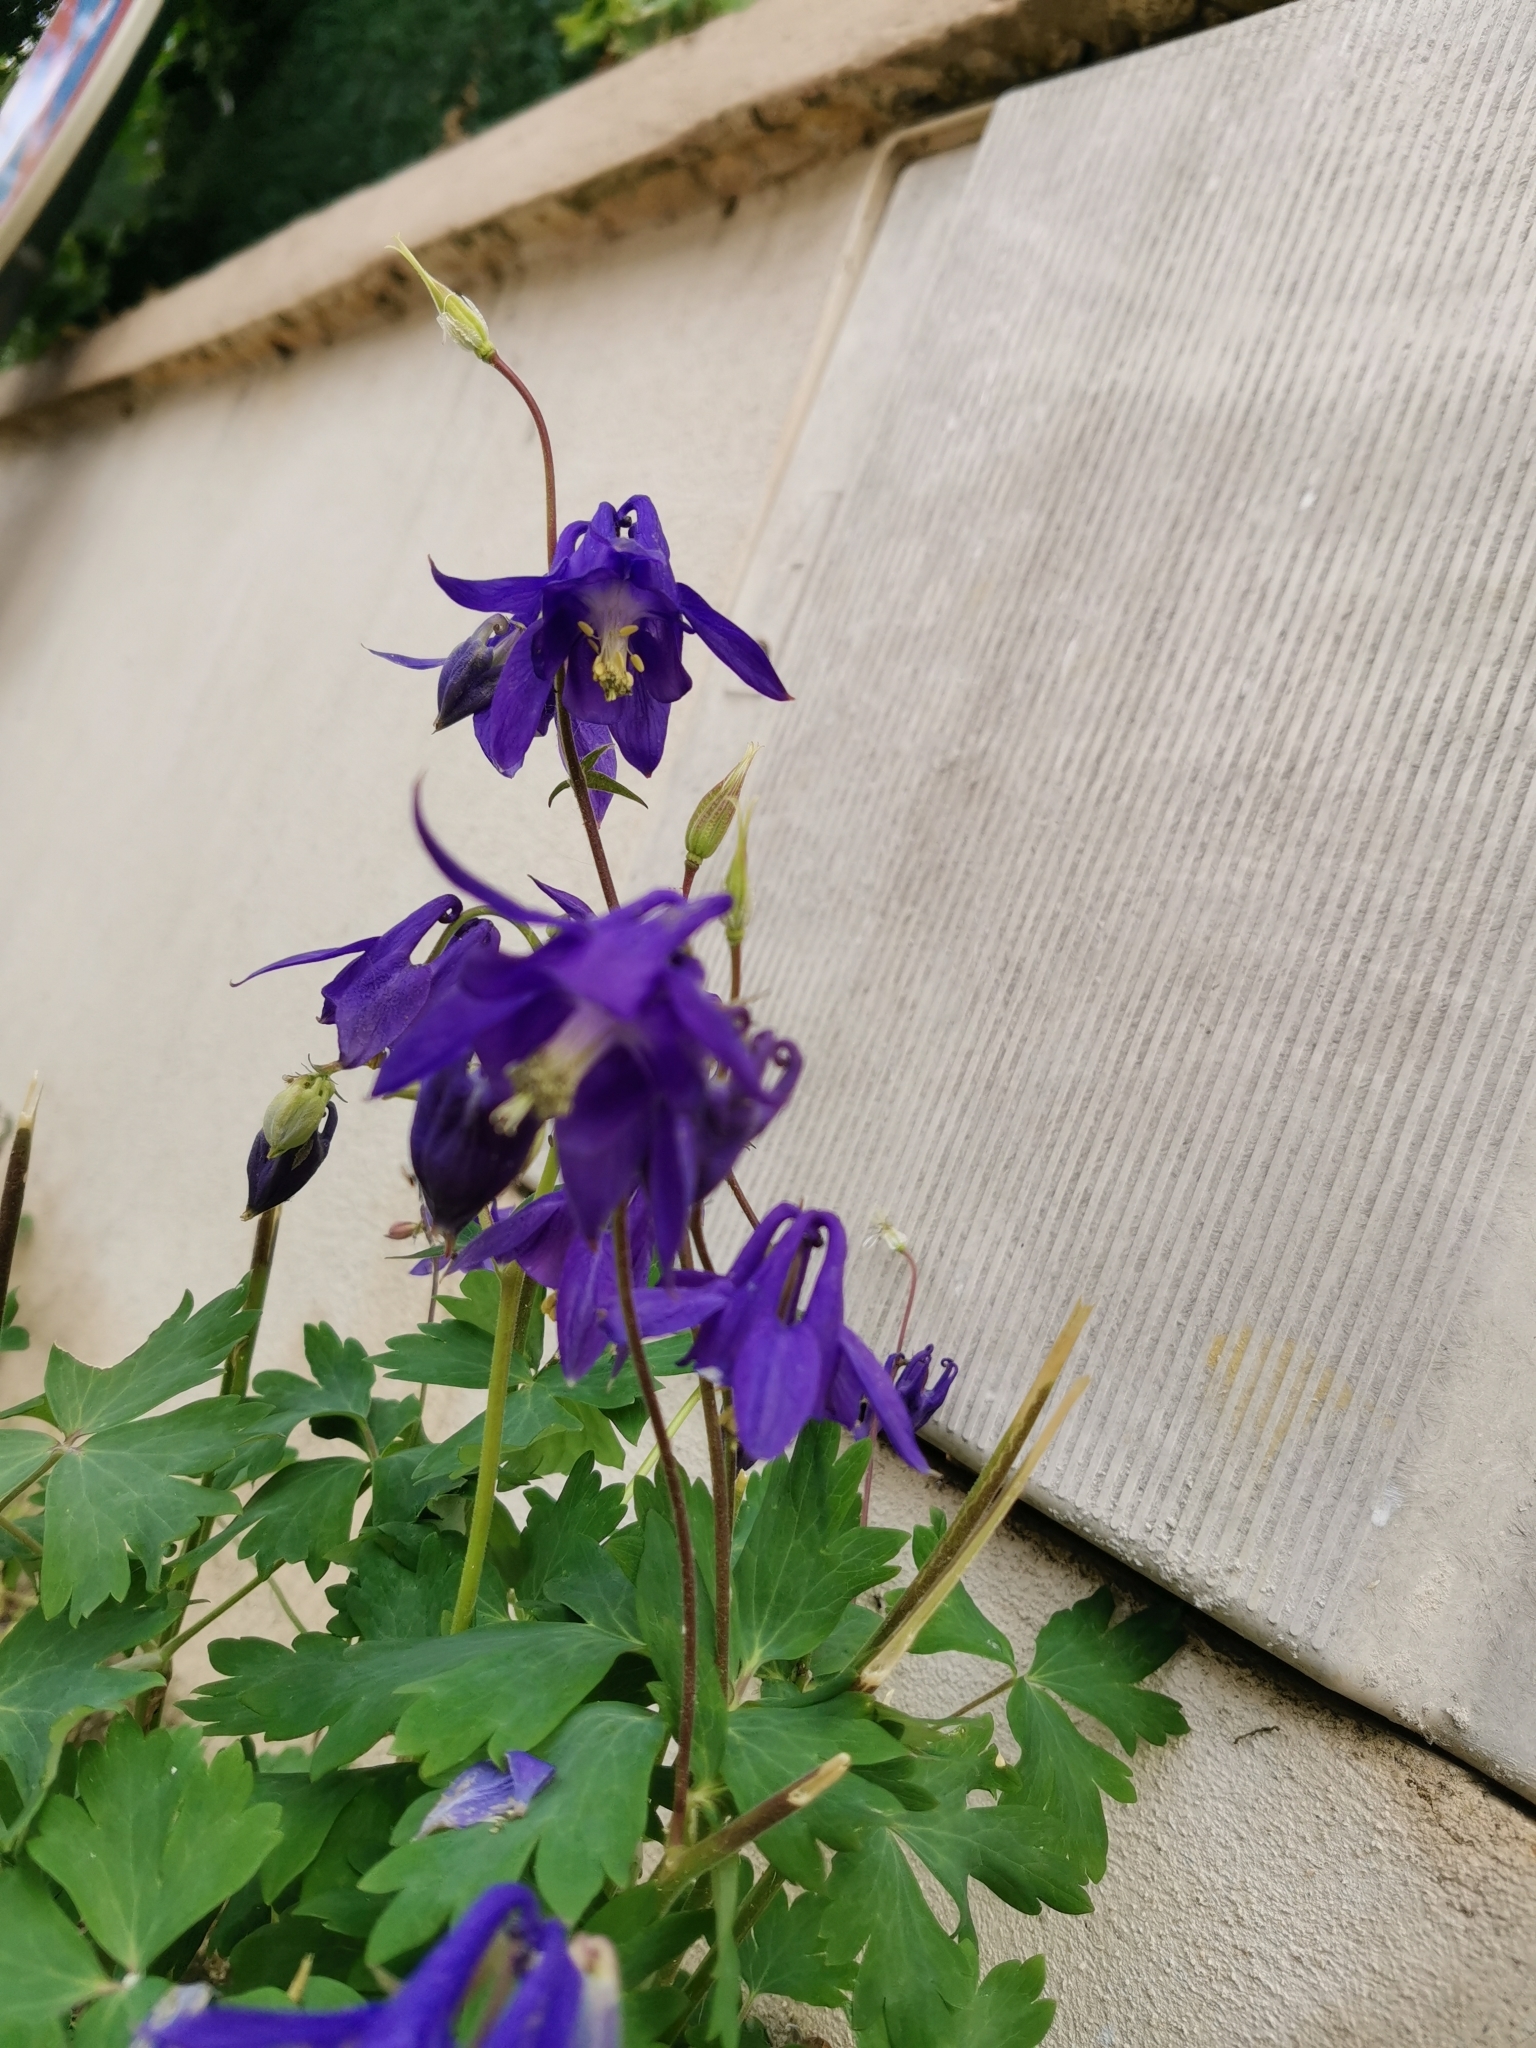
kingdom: Plantae
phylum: Tracheophyta
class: Magnoliopsida
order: Ranunculales
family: Ranunculaceae
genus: Aquilegia
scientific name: Aquilegia vulgaris
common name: Columbine
